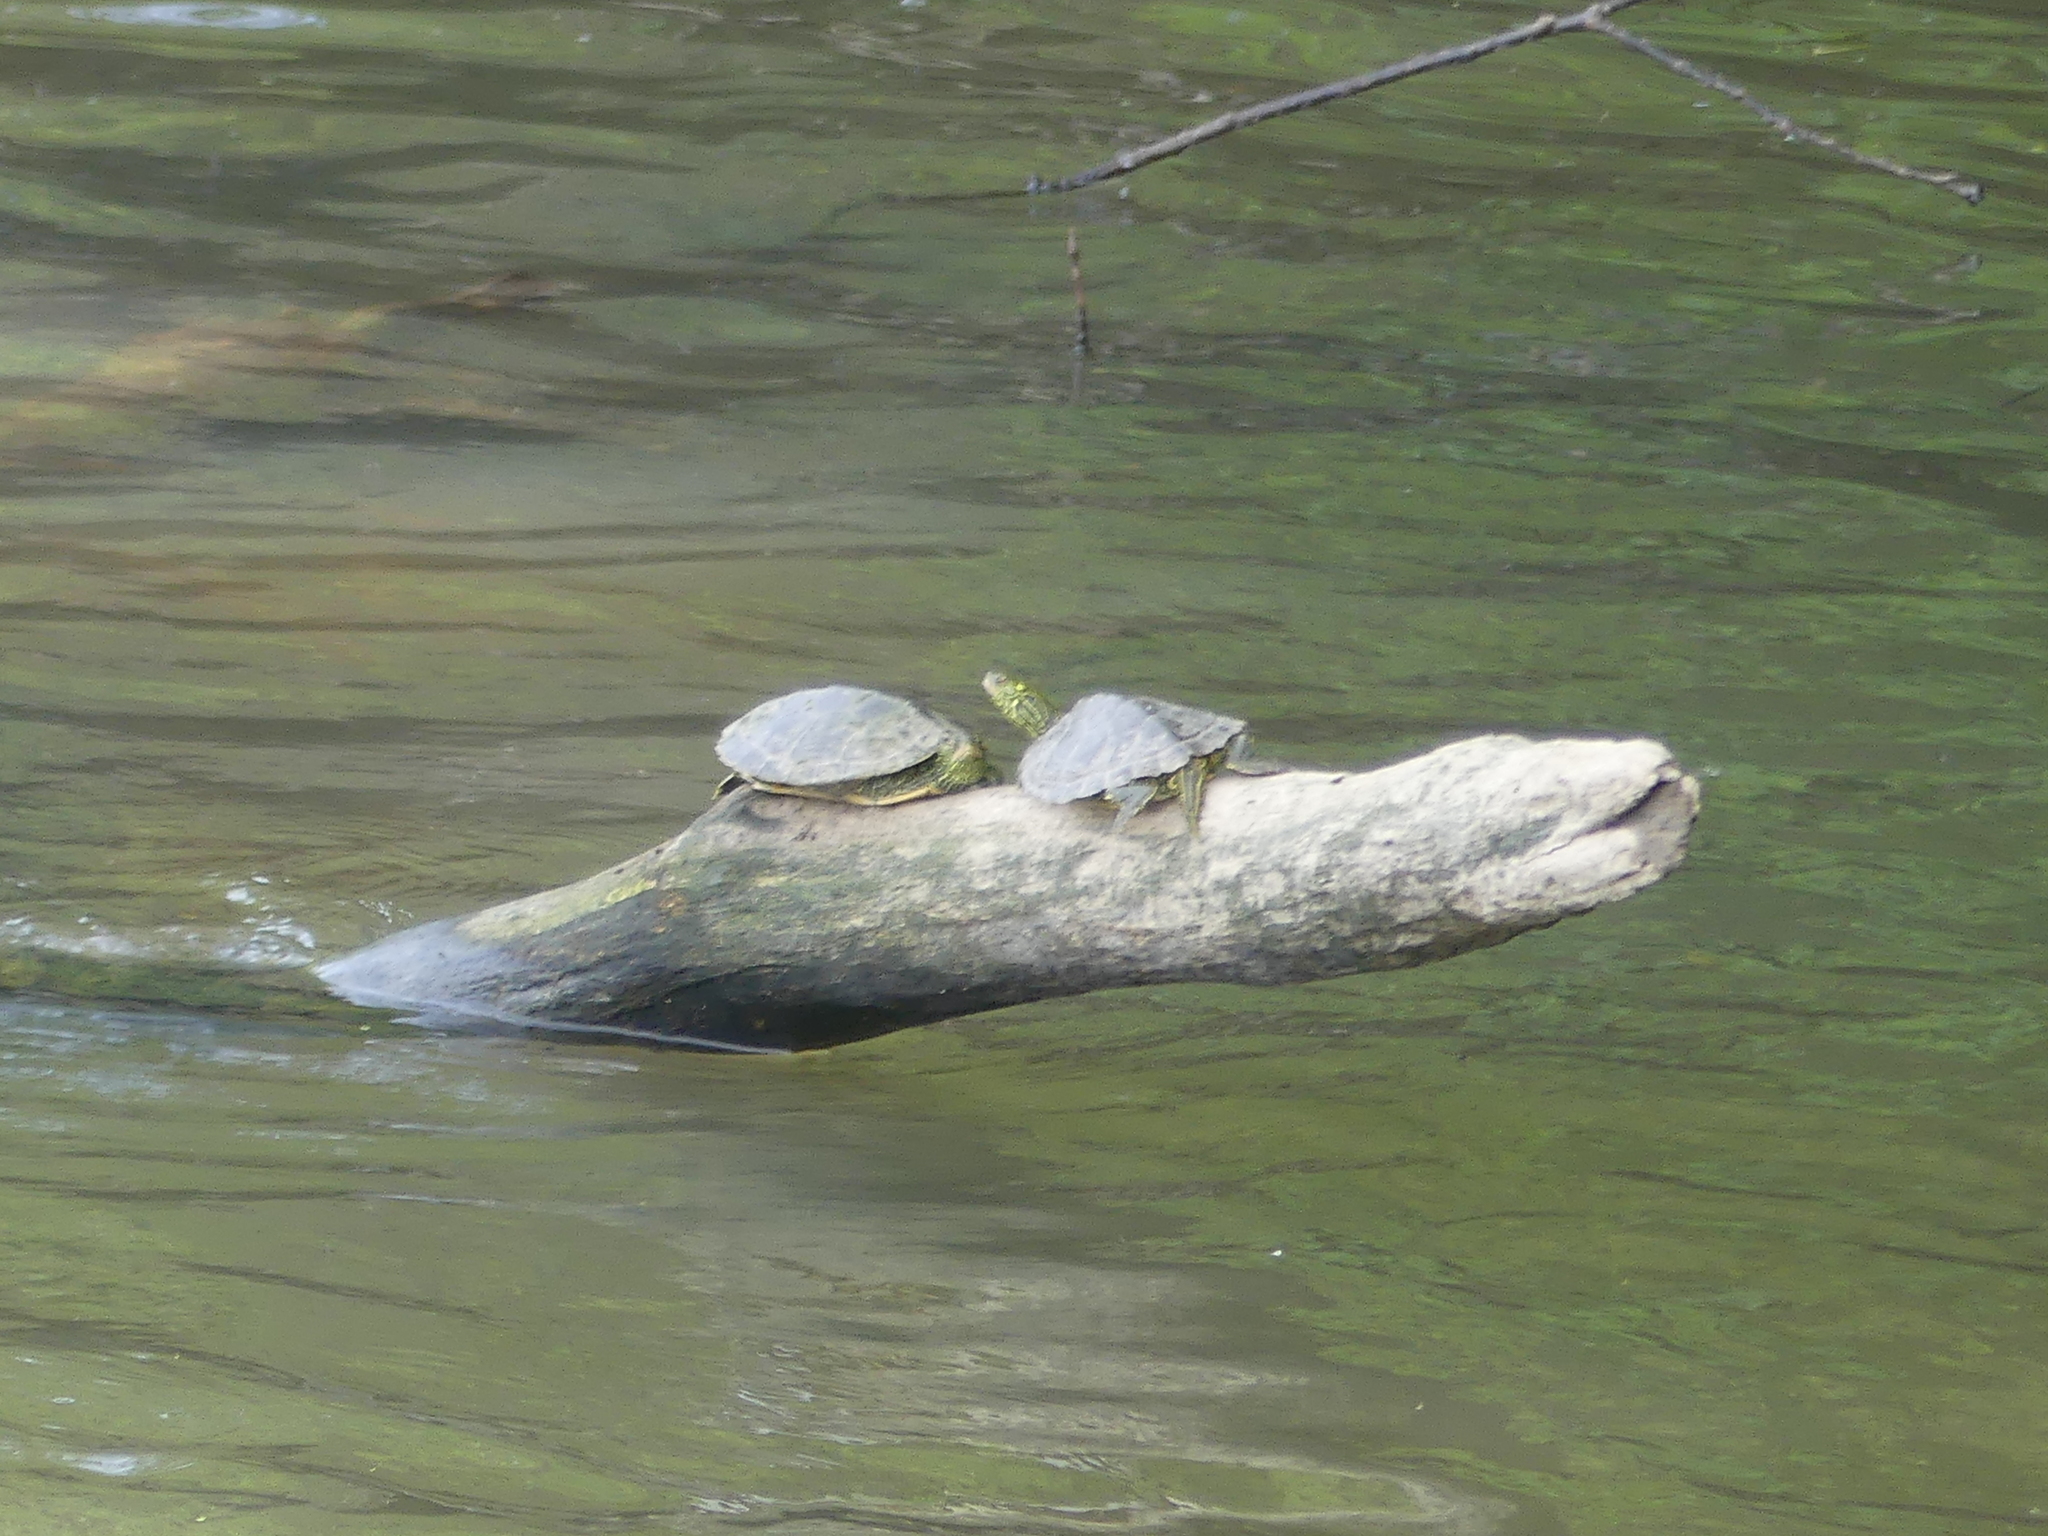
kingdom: Animalia
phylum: Chordata
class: Testudines
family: Emydidae
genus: Graptemys
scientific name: Graptemys geographica
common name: Common map turtle
